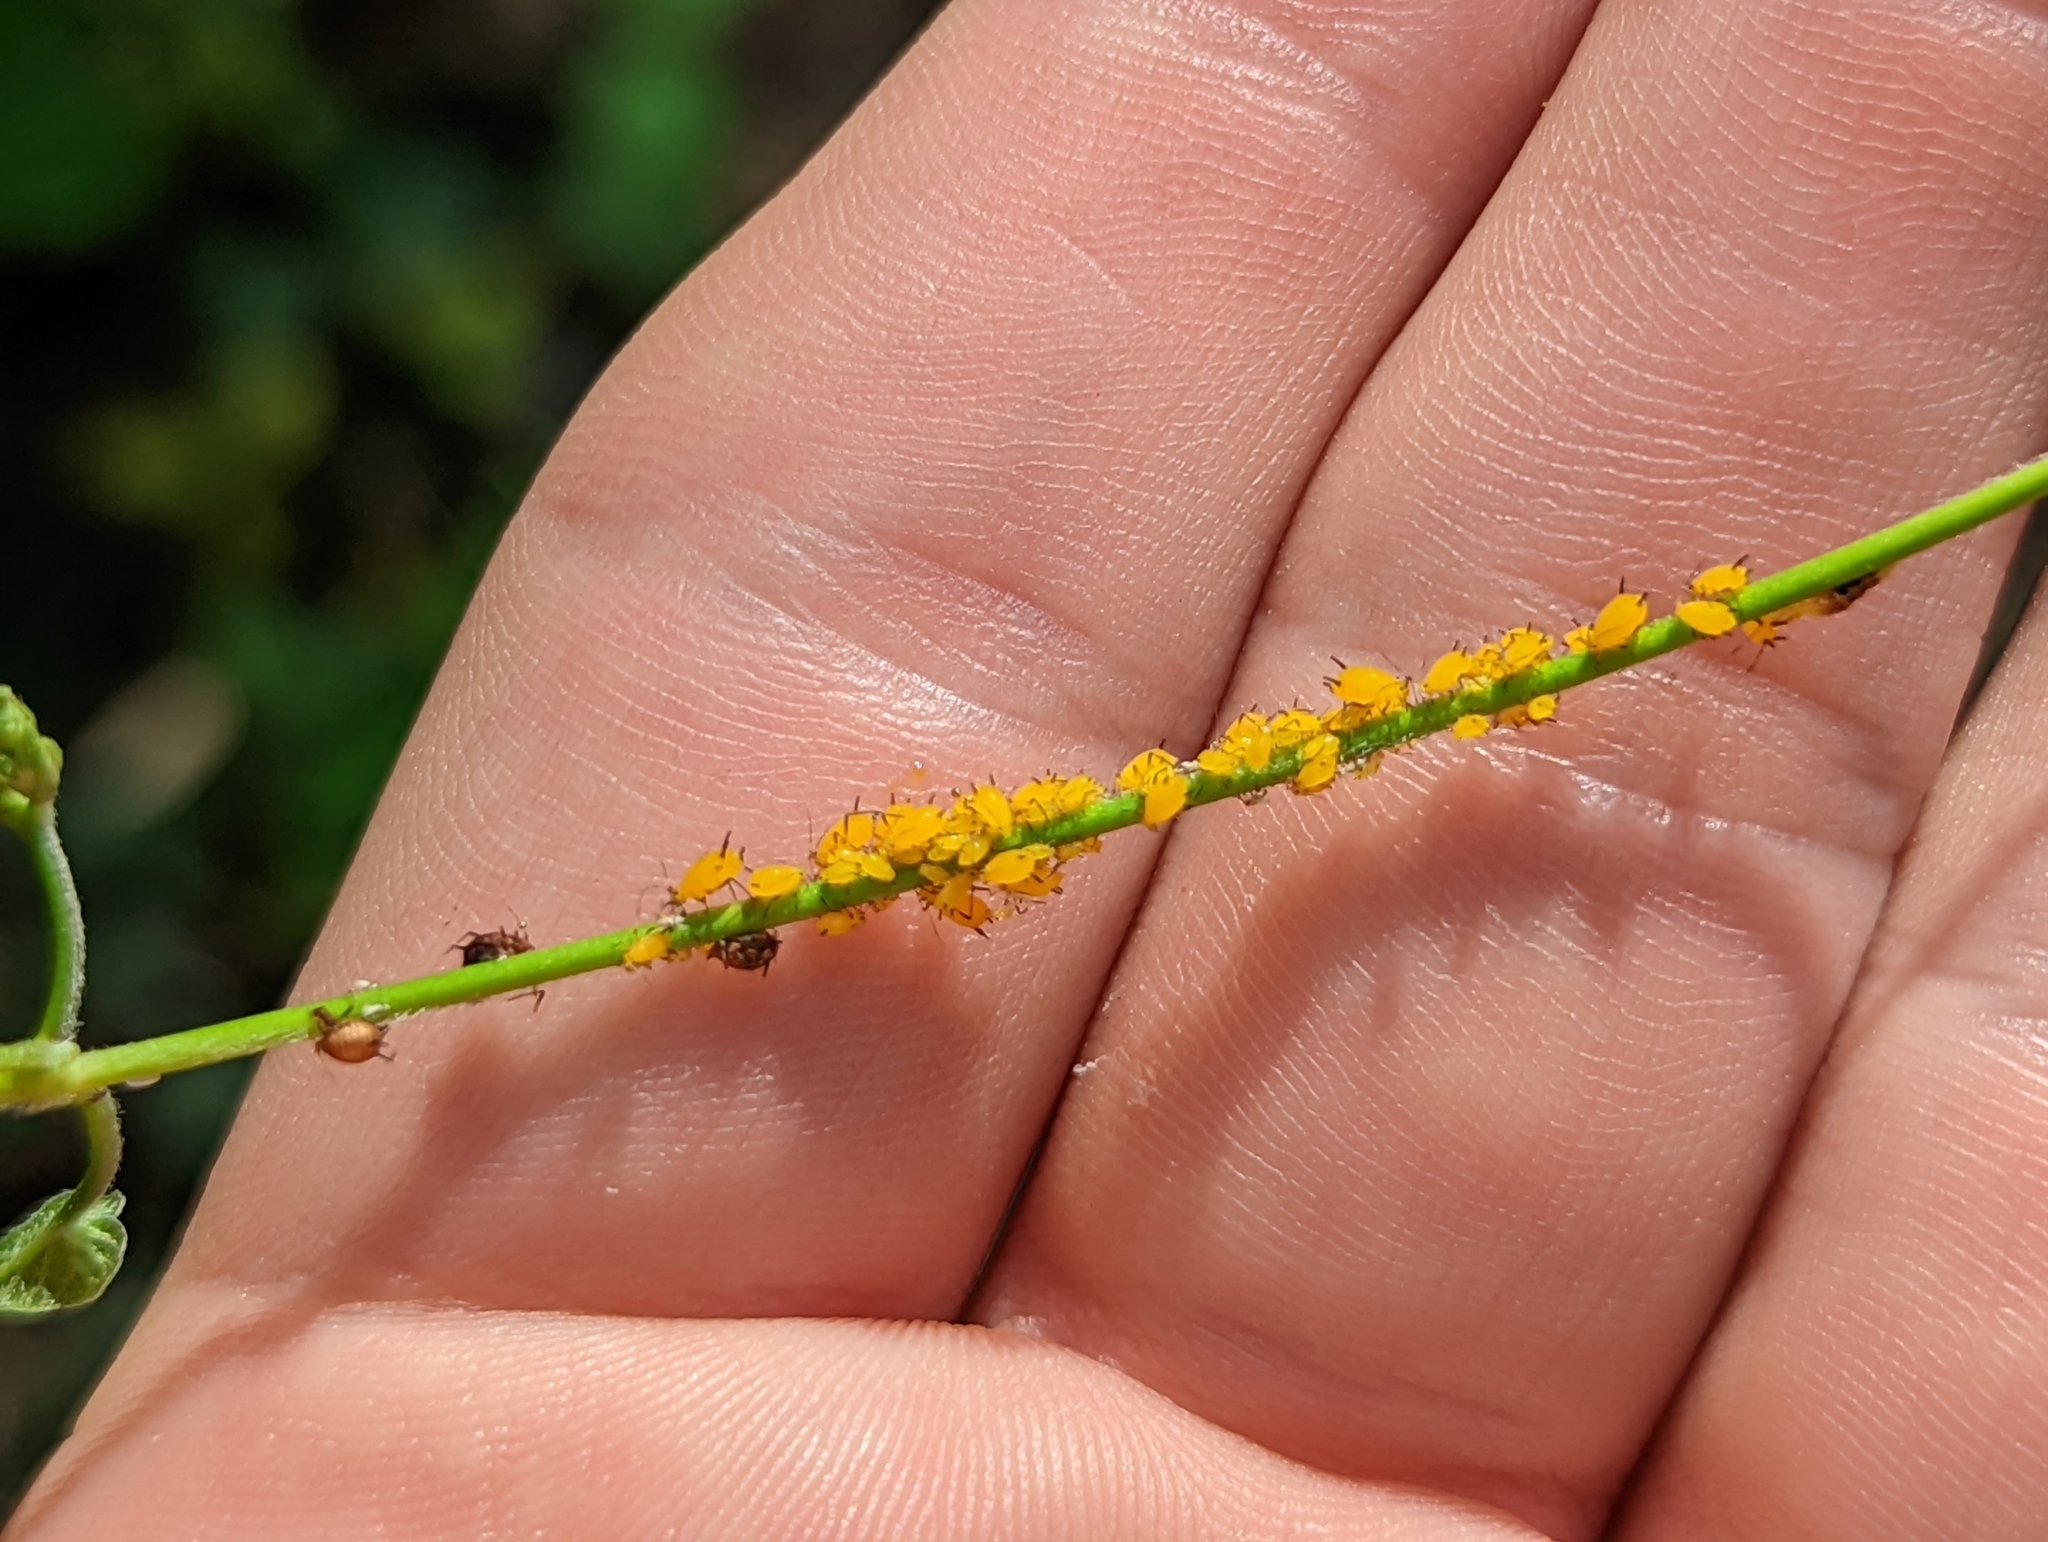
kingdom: Animalia
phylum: Arthropoda
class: Insecta
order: Hemiptera
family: Aphididae
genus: Aphis
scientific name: Aphis nerii
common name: Oleander aphid
